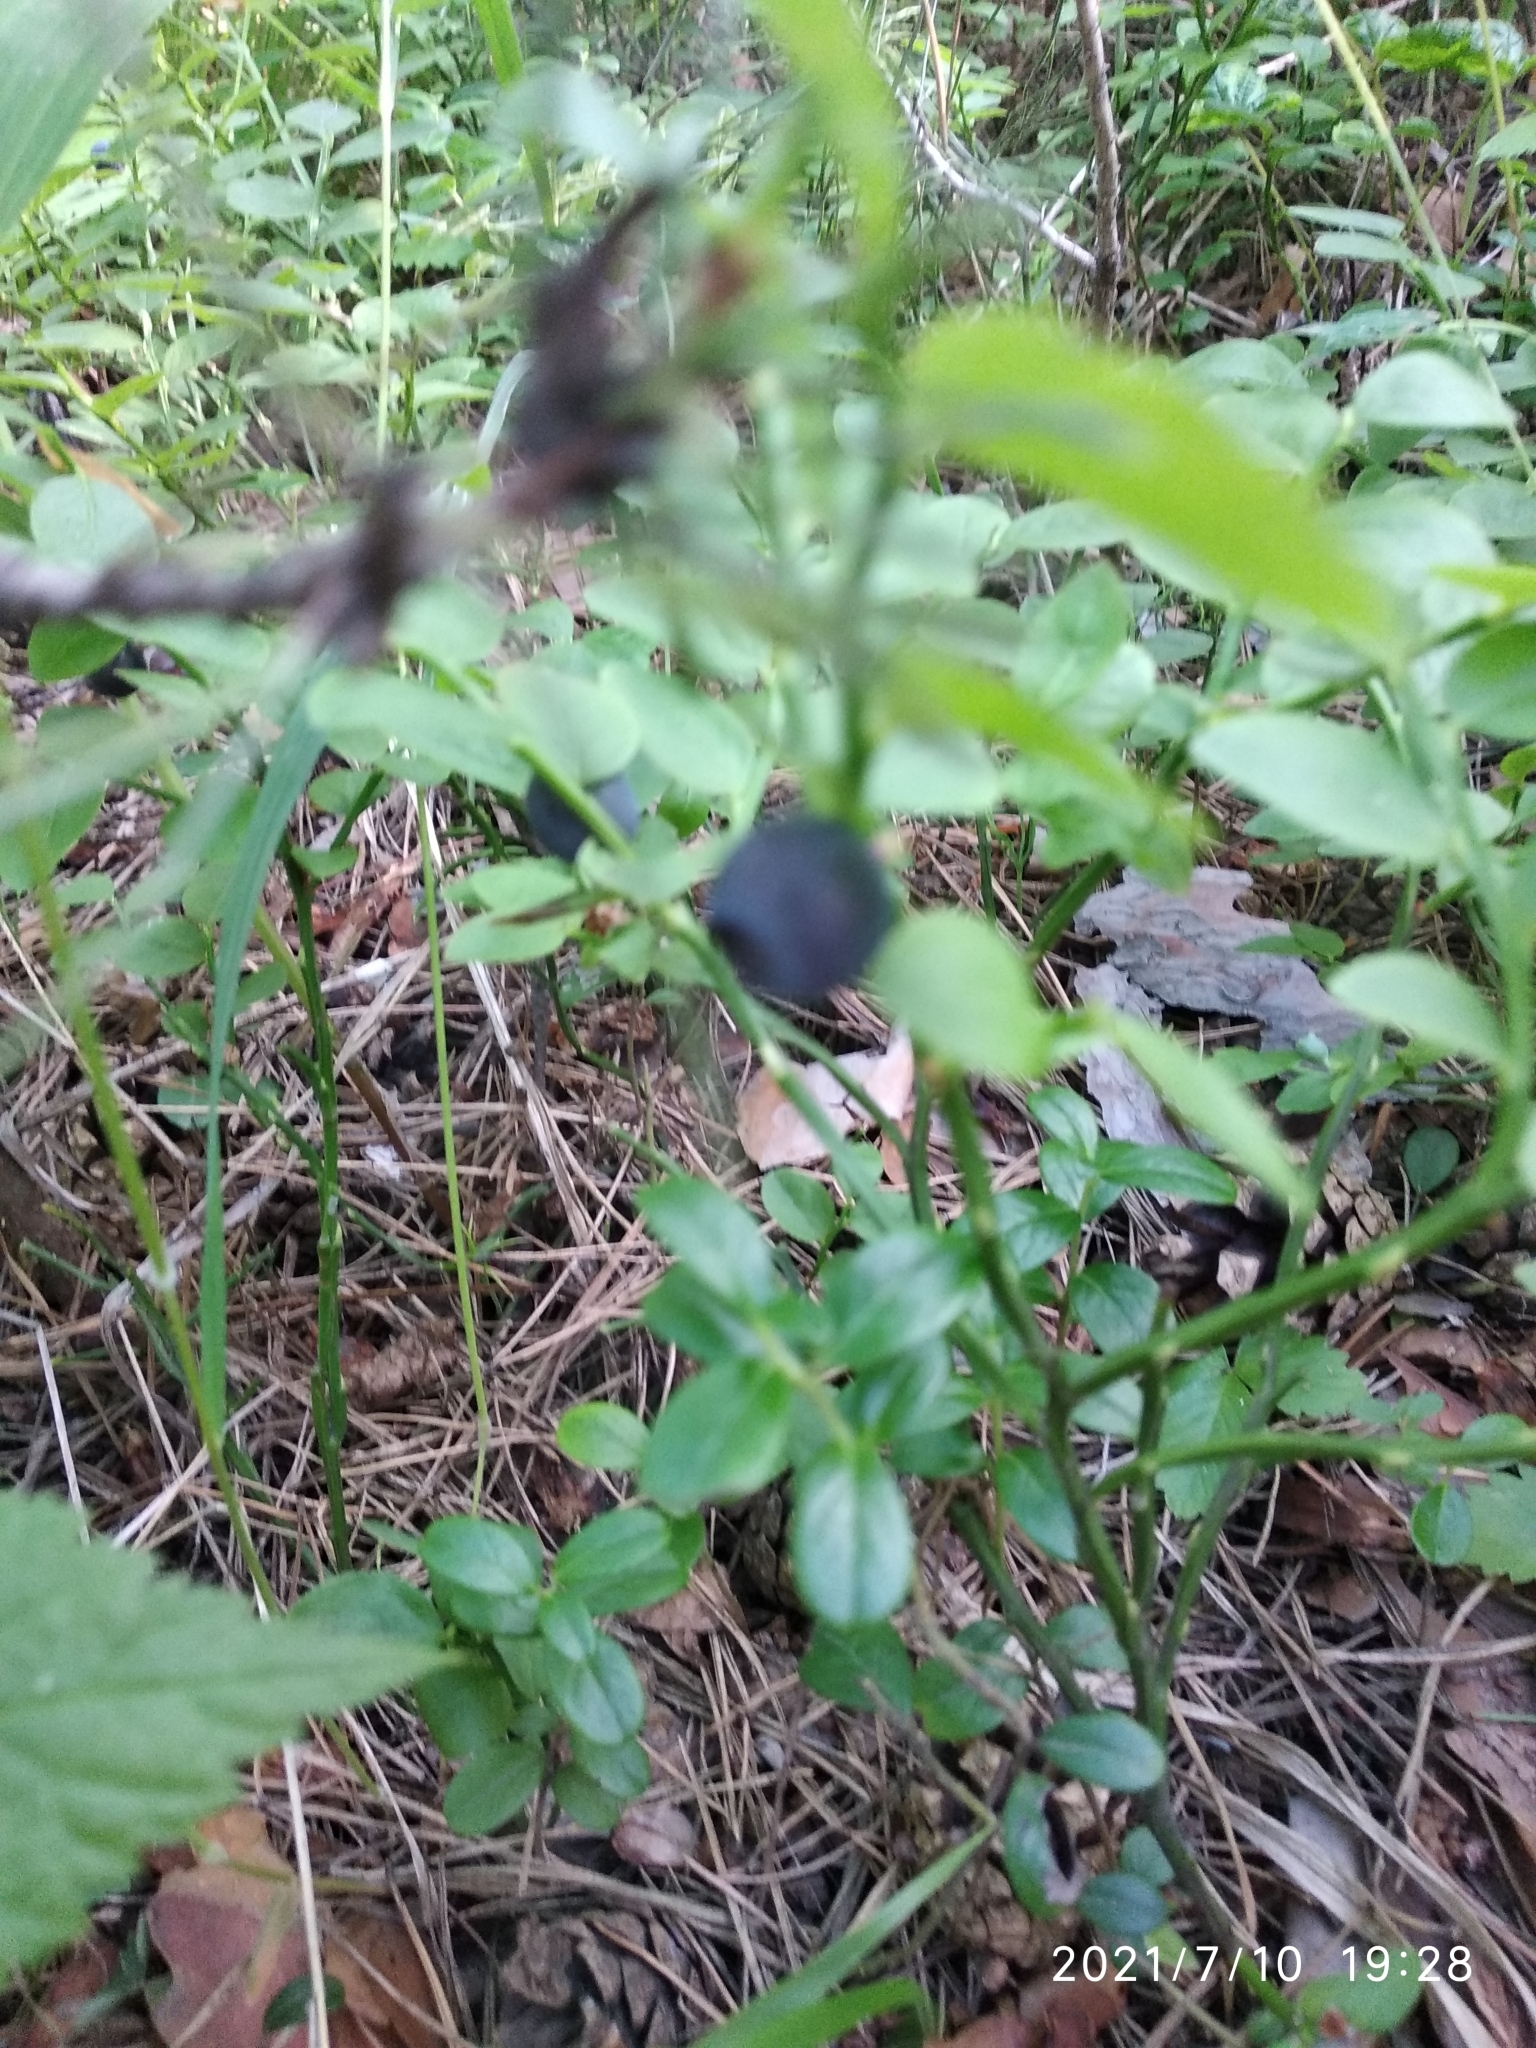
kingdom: Plantae
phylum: Tracheophyta
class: Magnoliopsida
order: Ericales
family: Ericaceae
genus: Vaccinium
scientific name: Vaccinium myrtillus
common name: Bilberry
